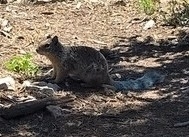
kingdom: Animalia
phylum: Chordata
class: Mammalia
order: Rodentia
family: Sciuridae
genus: Otospermophilus
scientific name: Otospermophilus variegatus
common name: Rock squirrel
